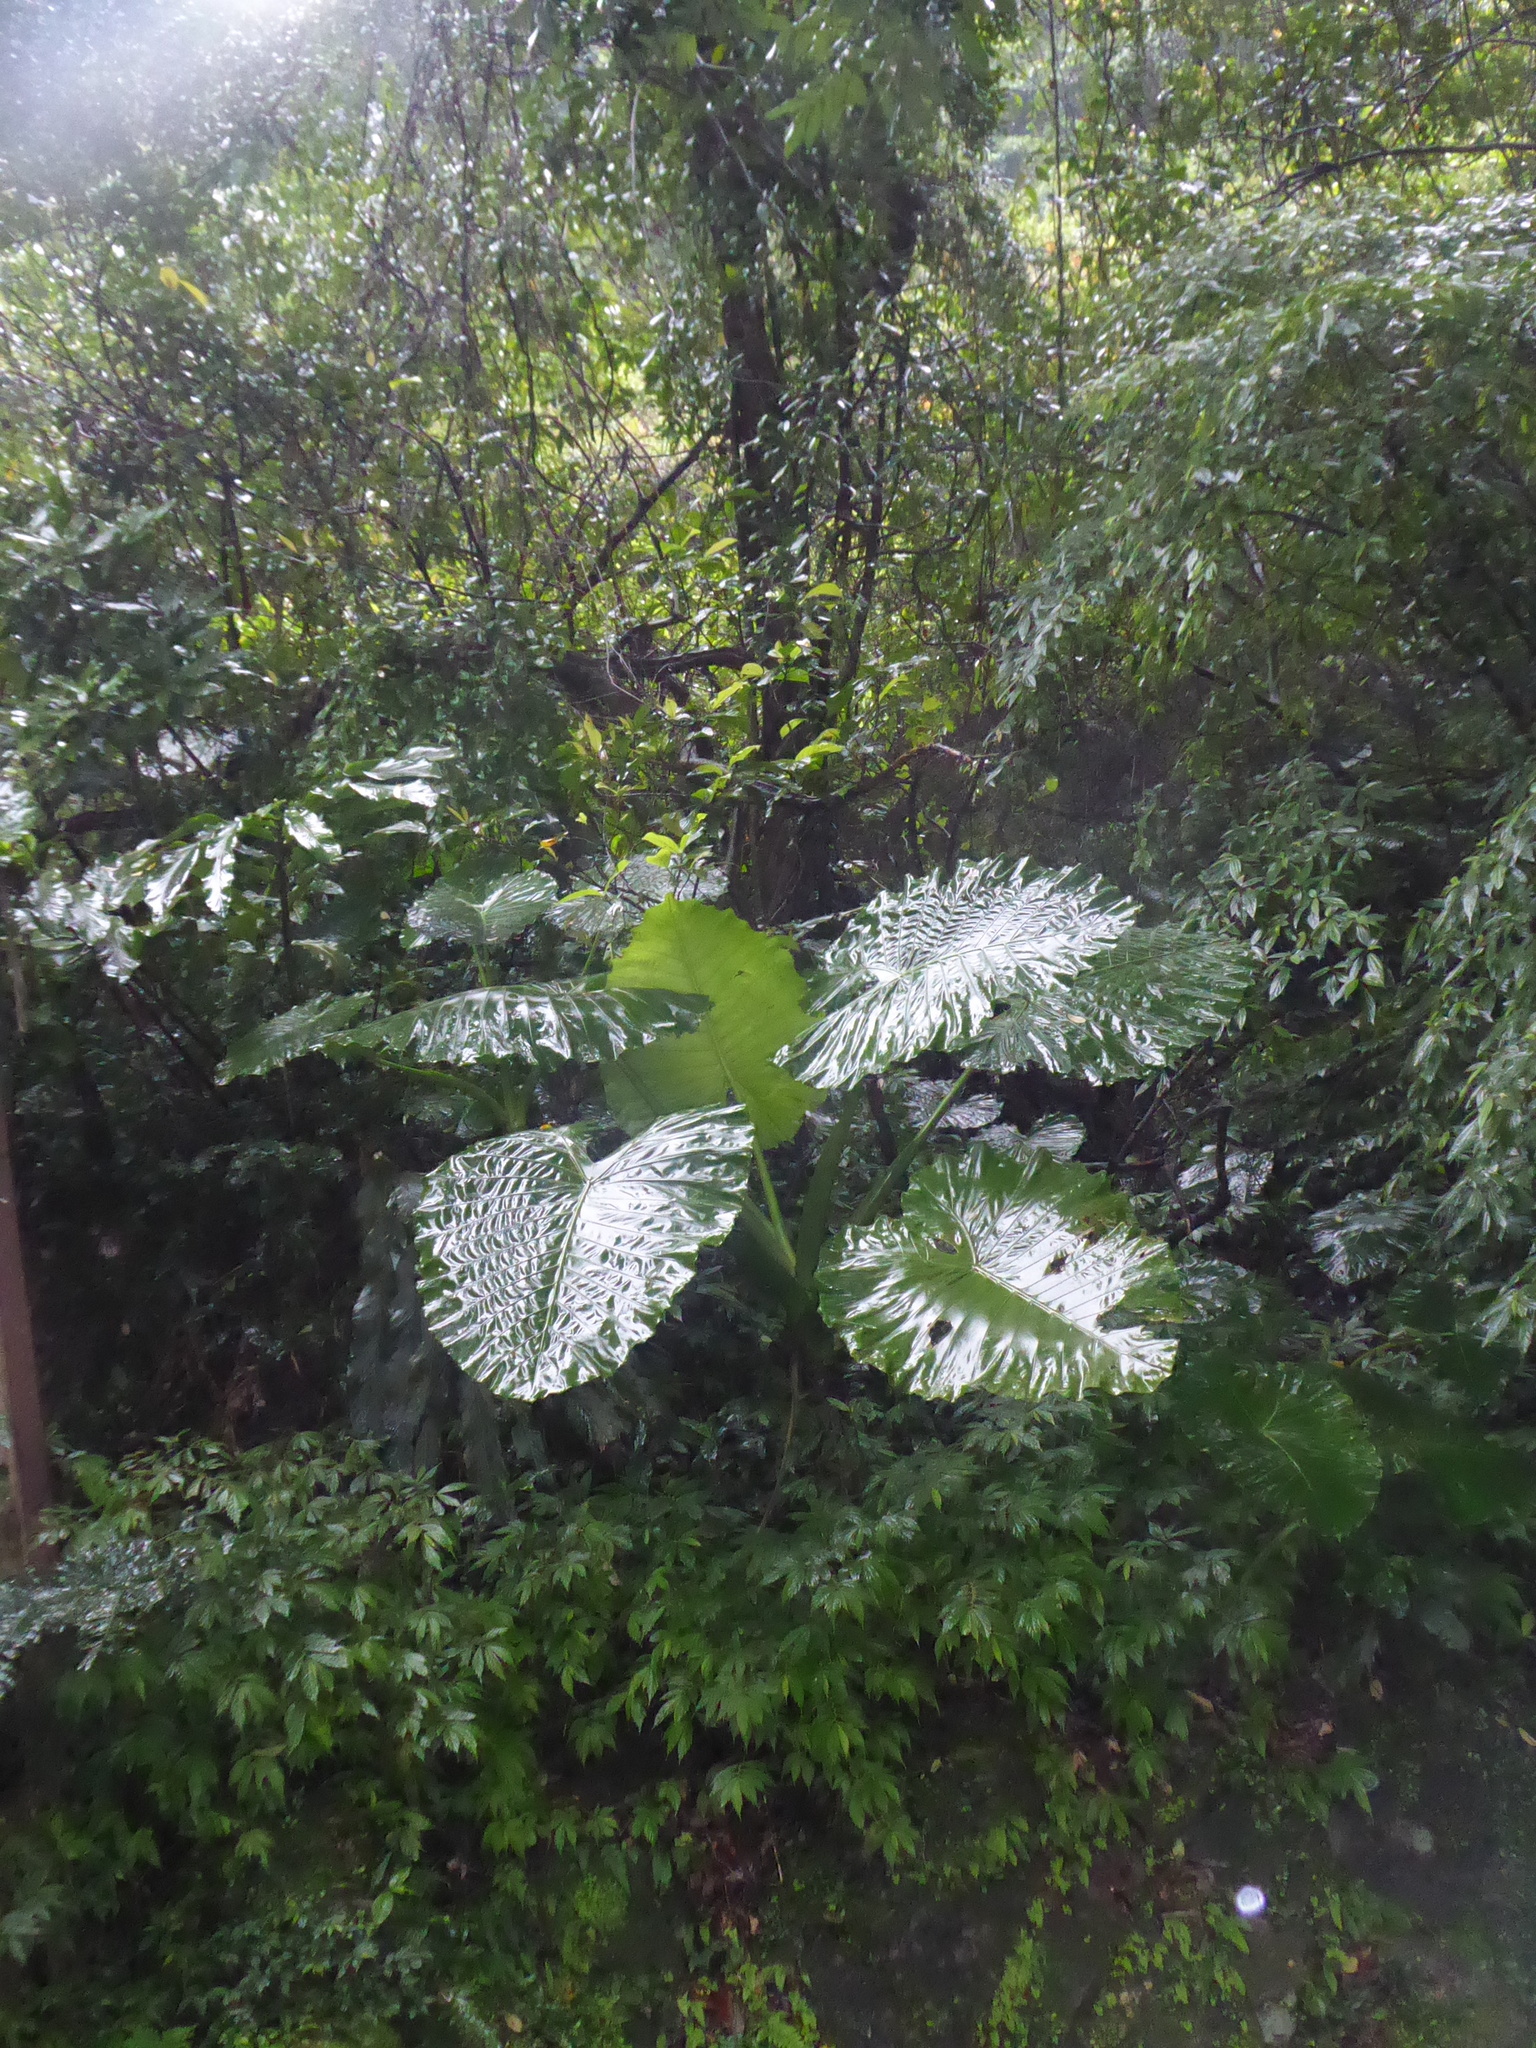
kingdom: Plantae
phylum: Tracheophyta
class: Liliopsida
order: Alismatales
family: Araceae
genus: Alocasia
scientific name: Alocasia odora
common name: Asian taro
